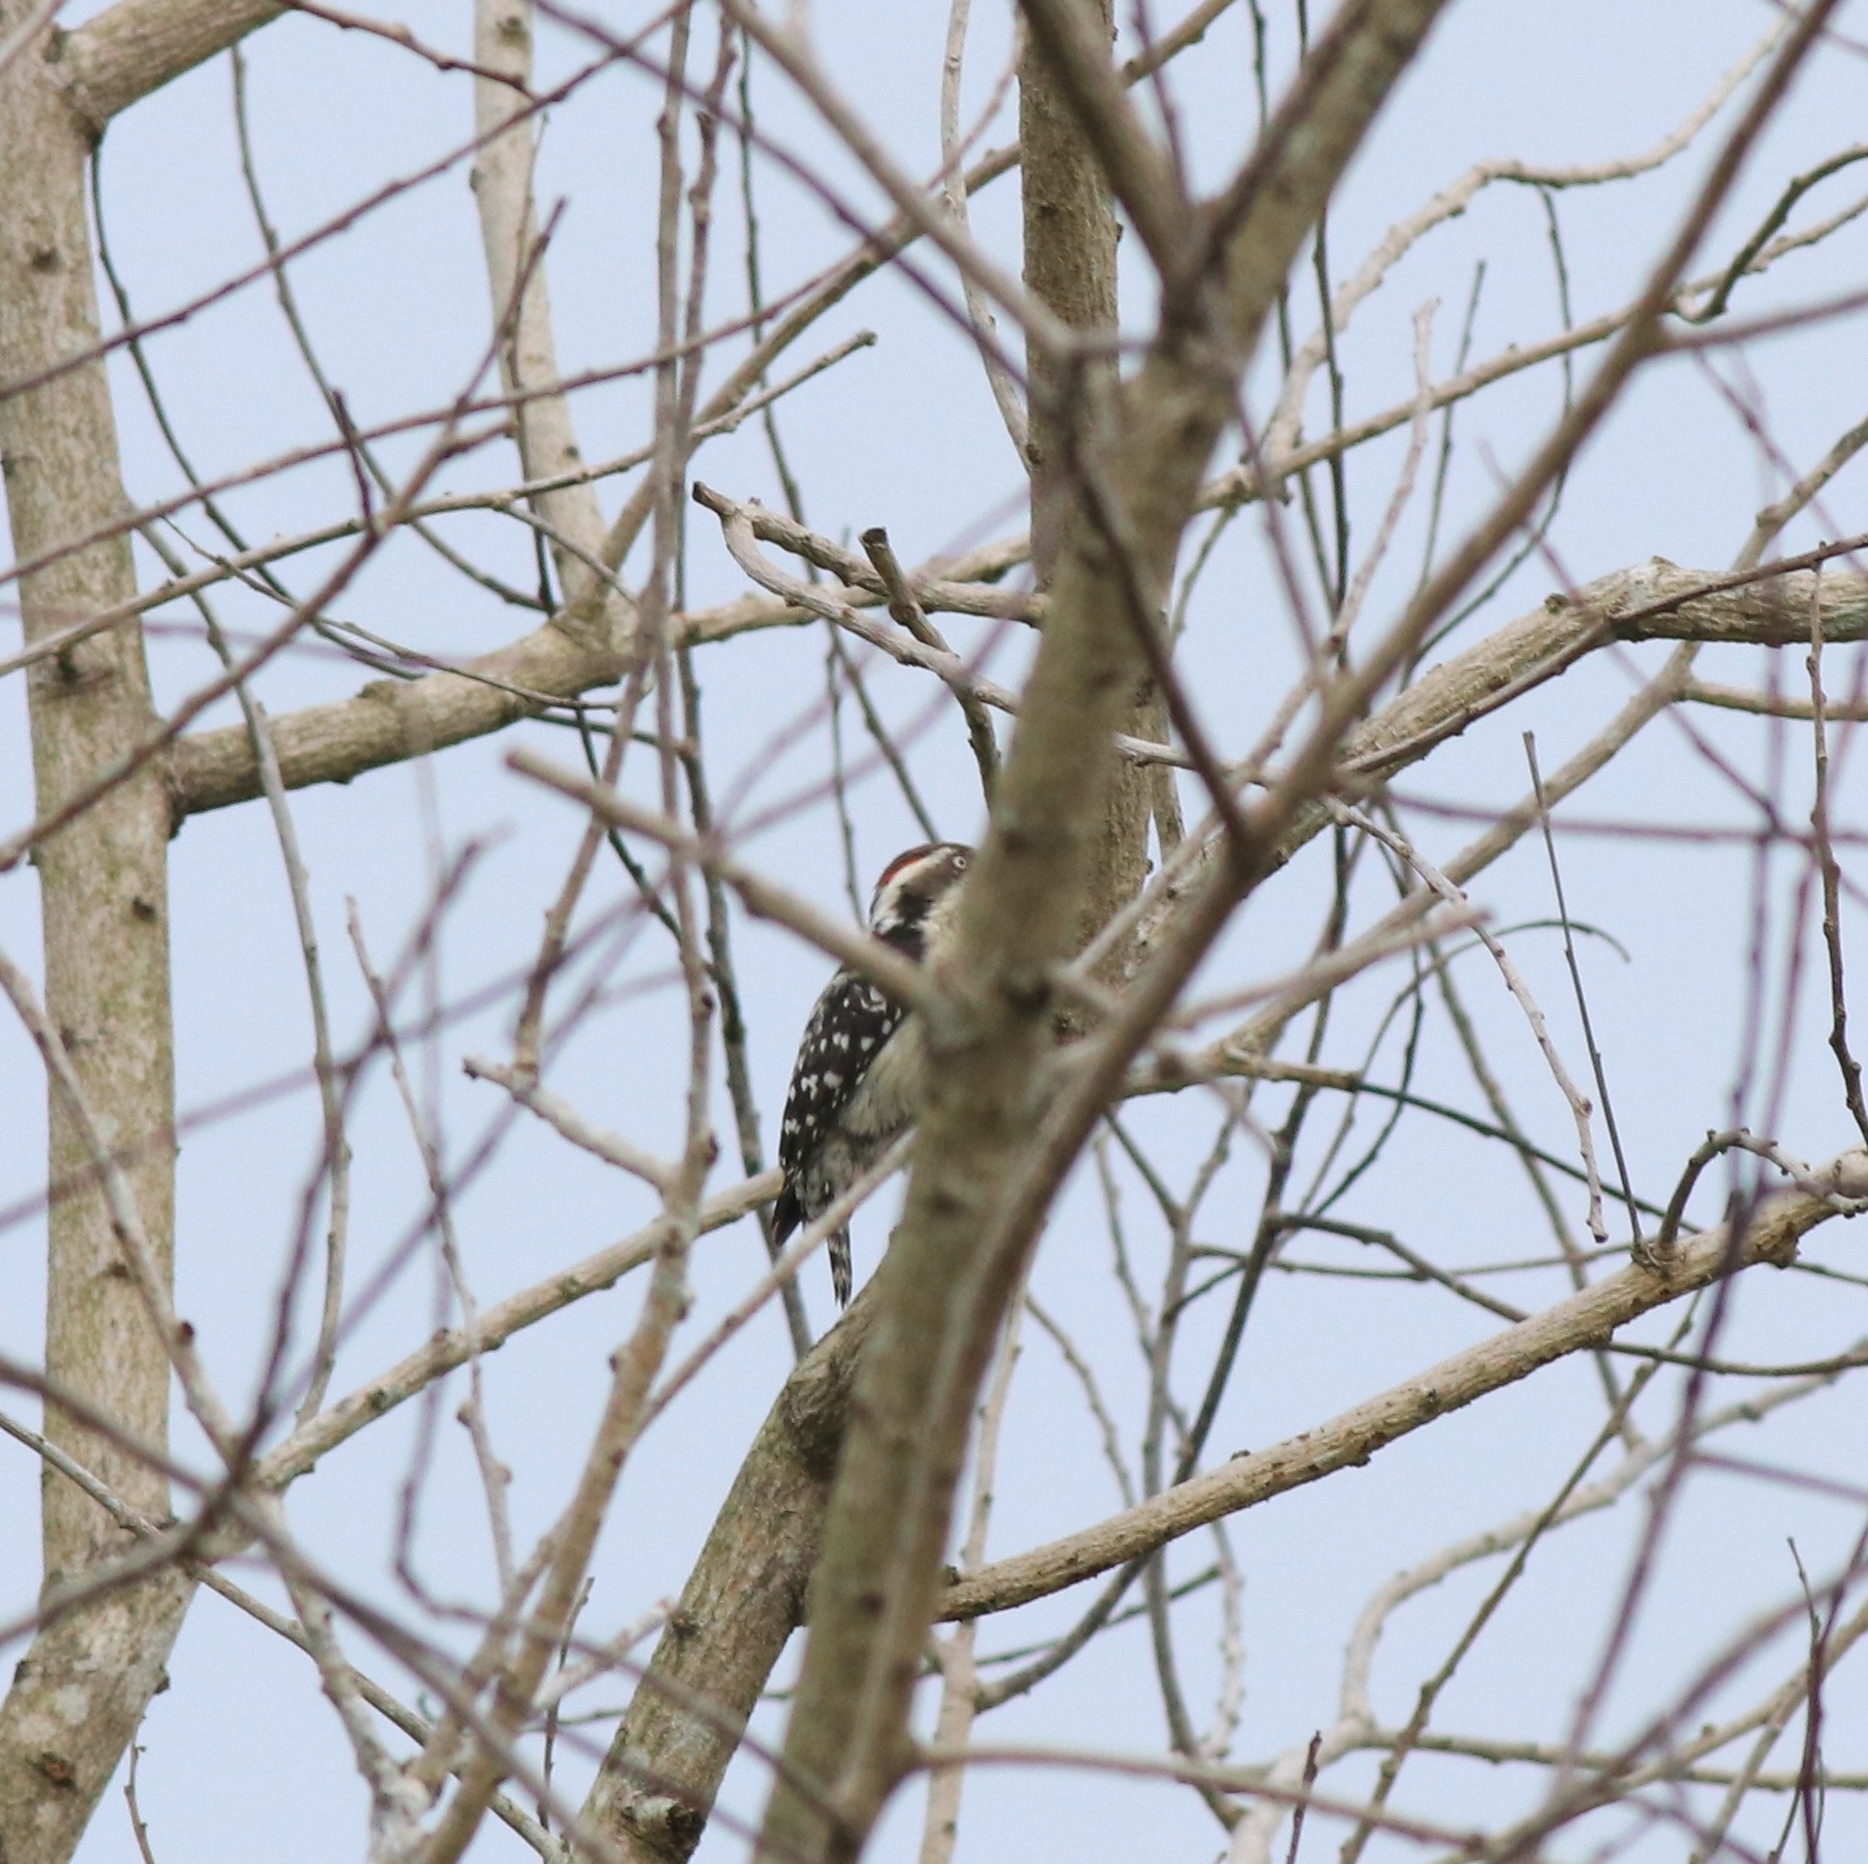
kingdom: Animalia
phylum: Chordata
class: Aves
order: Piciformes
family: Picidae
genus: Yungipicus
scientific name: Yungipicus nanus
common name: Brown-capped pygmy woodpecker
